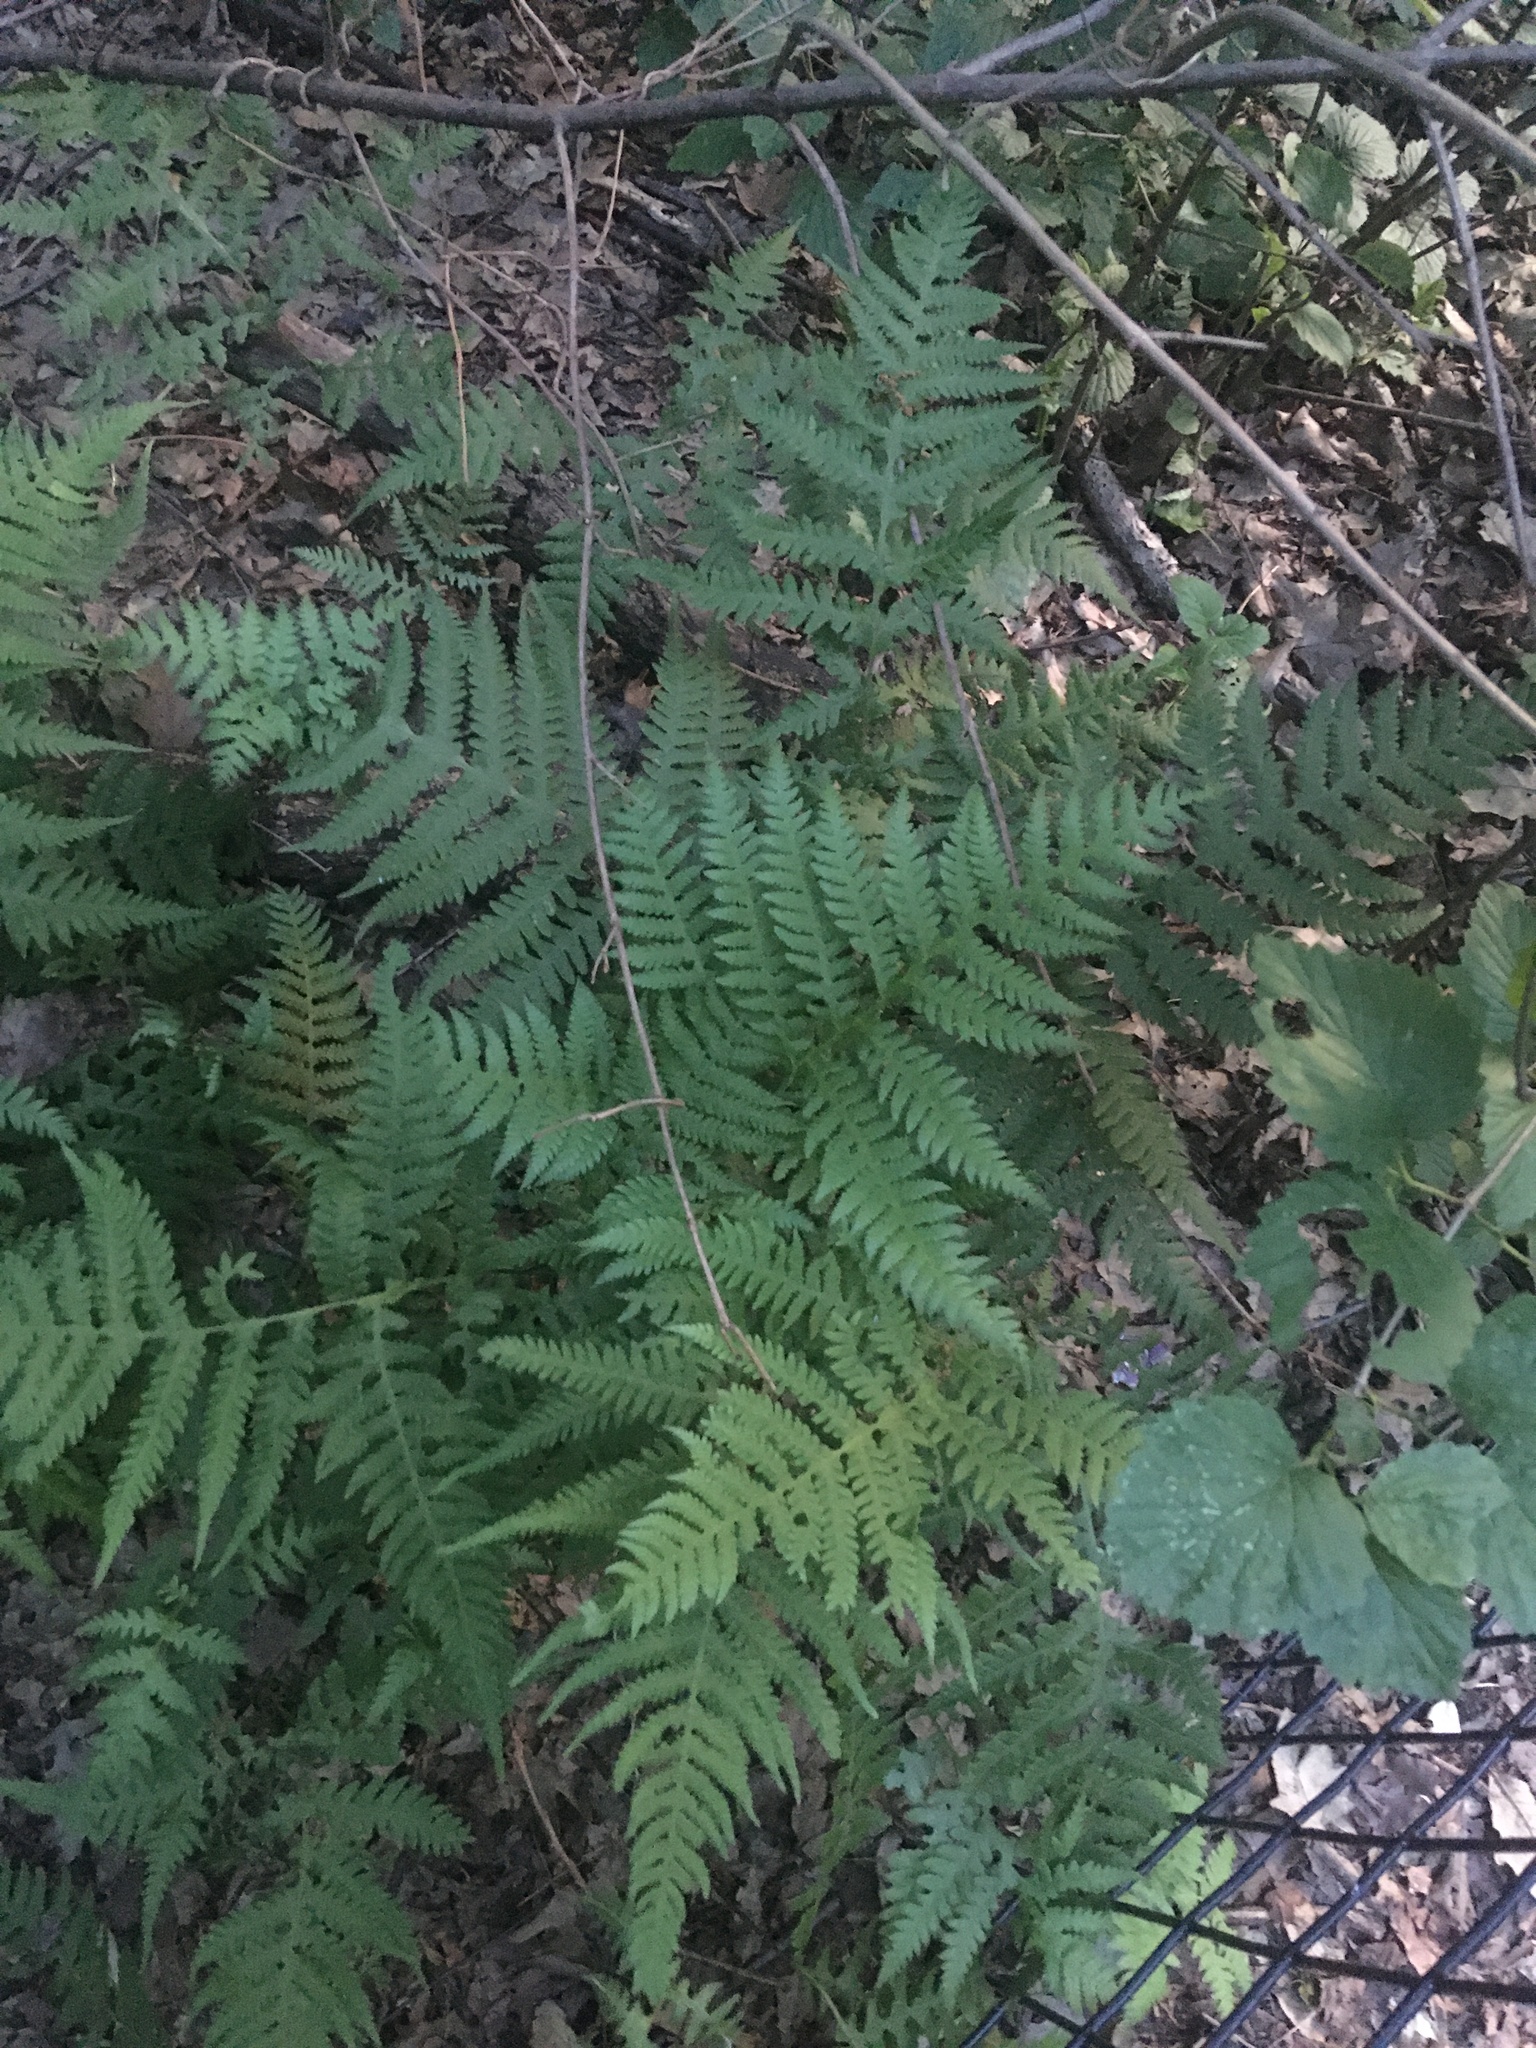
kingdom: Plantae
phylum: Tracheophyta
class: Polypodiopsida
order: Polypodiales
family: Thelypteridaceae
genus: Phegopteris
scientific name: Phegopteris hexagonoptera
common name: Broad beech fern
